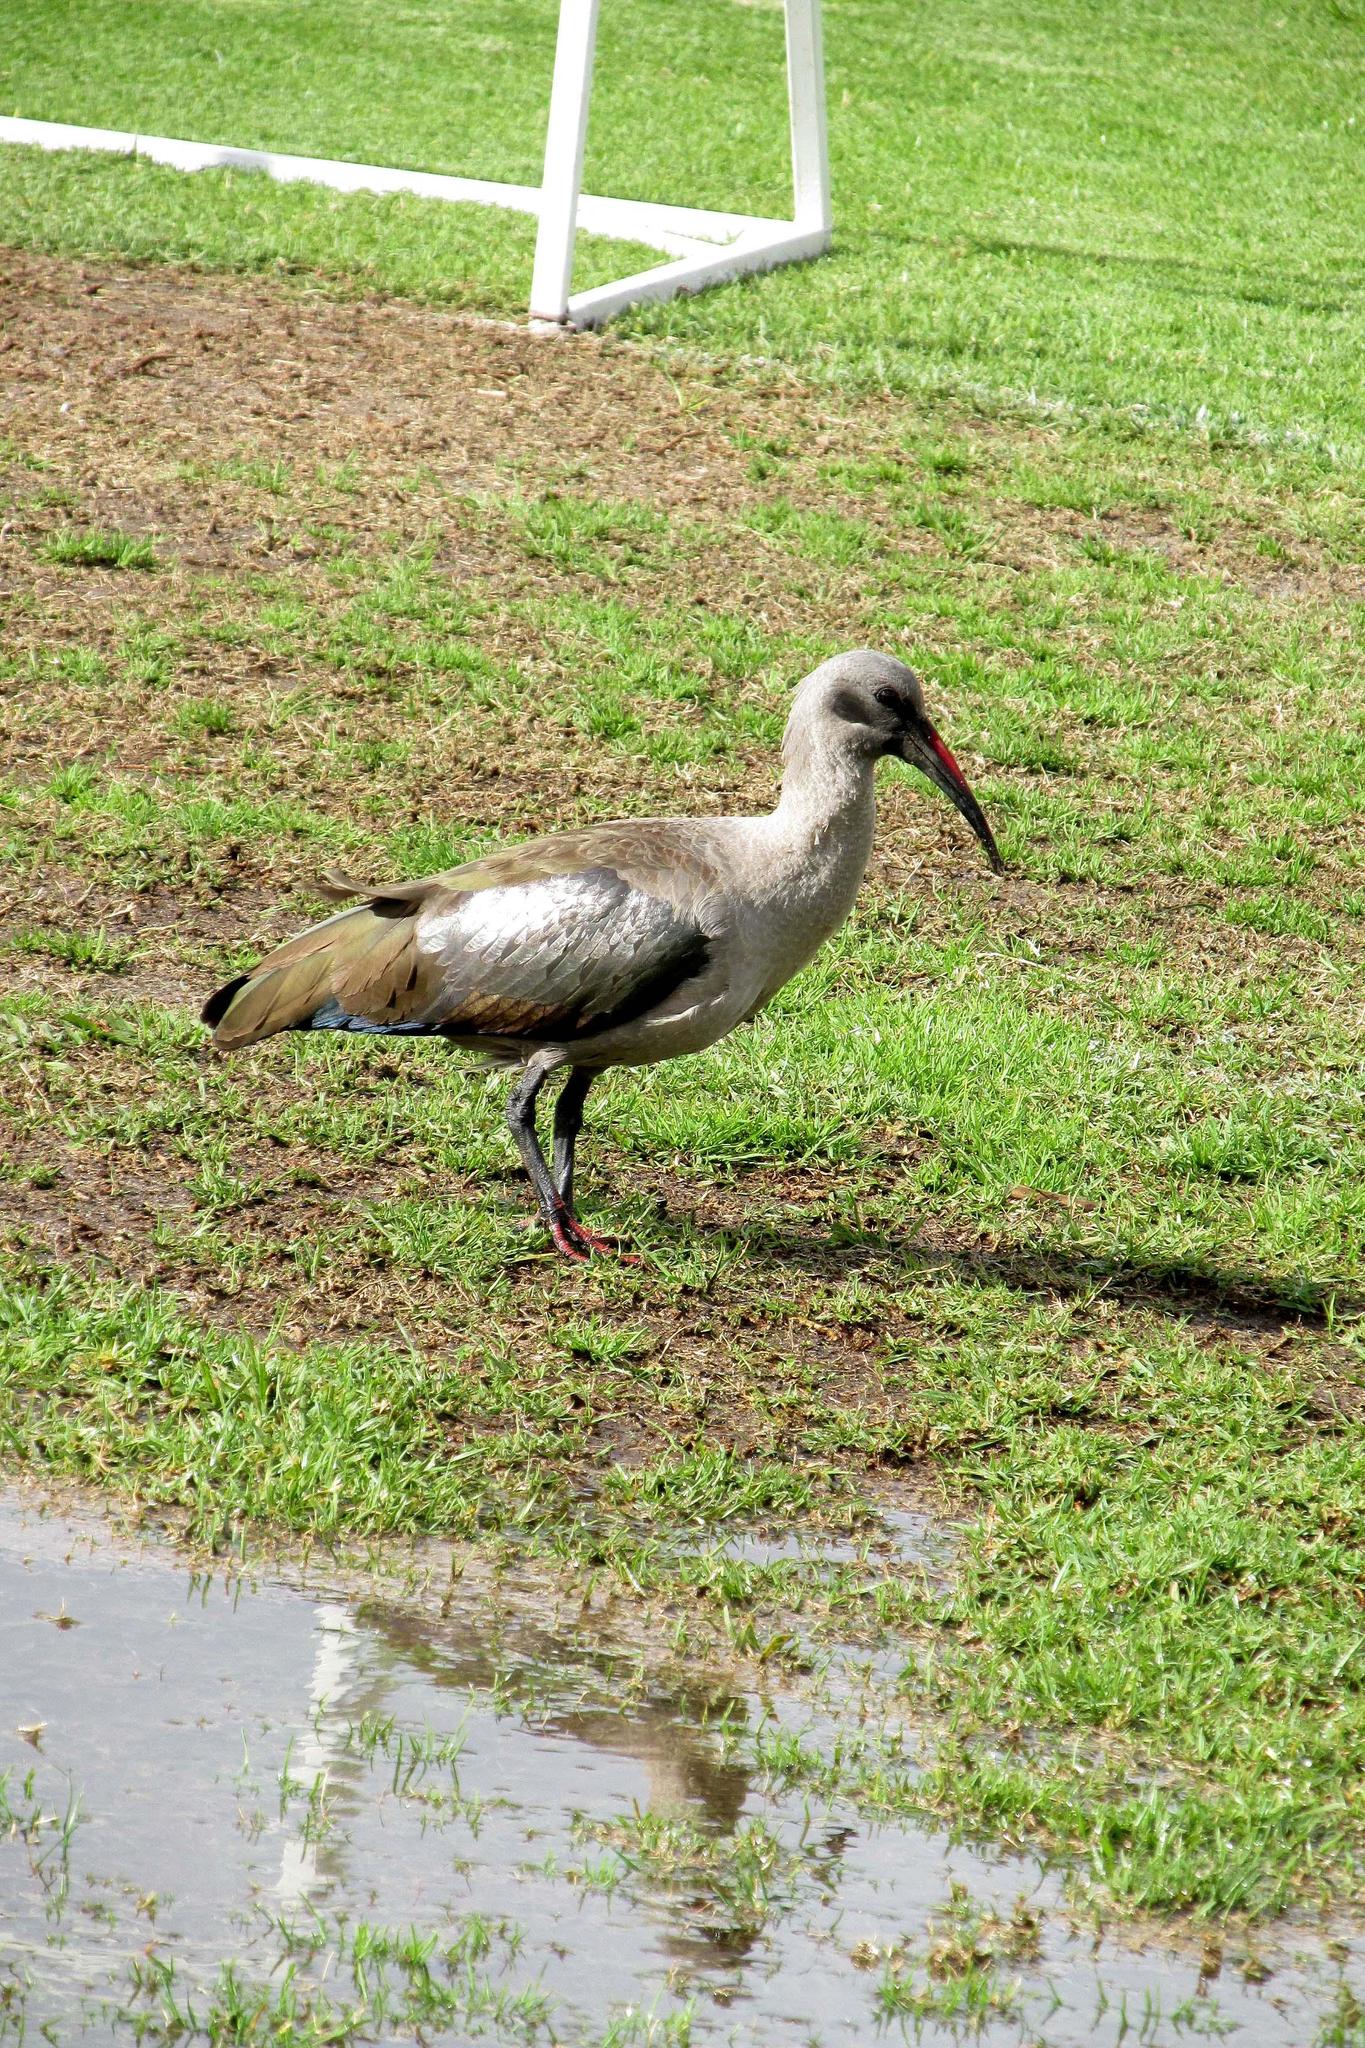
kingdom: Animalia
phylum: Chordata
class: Aves
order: Pelecaniformes
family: Threskiornithidae
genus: Bostrychia
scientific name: Bostrychia hagedash
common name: Hadada ibis
